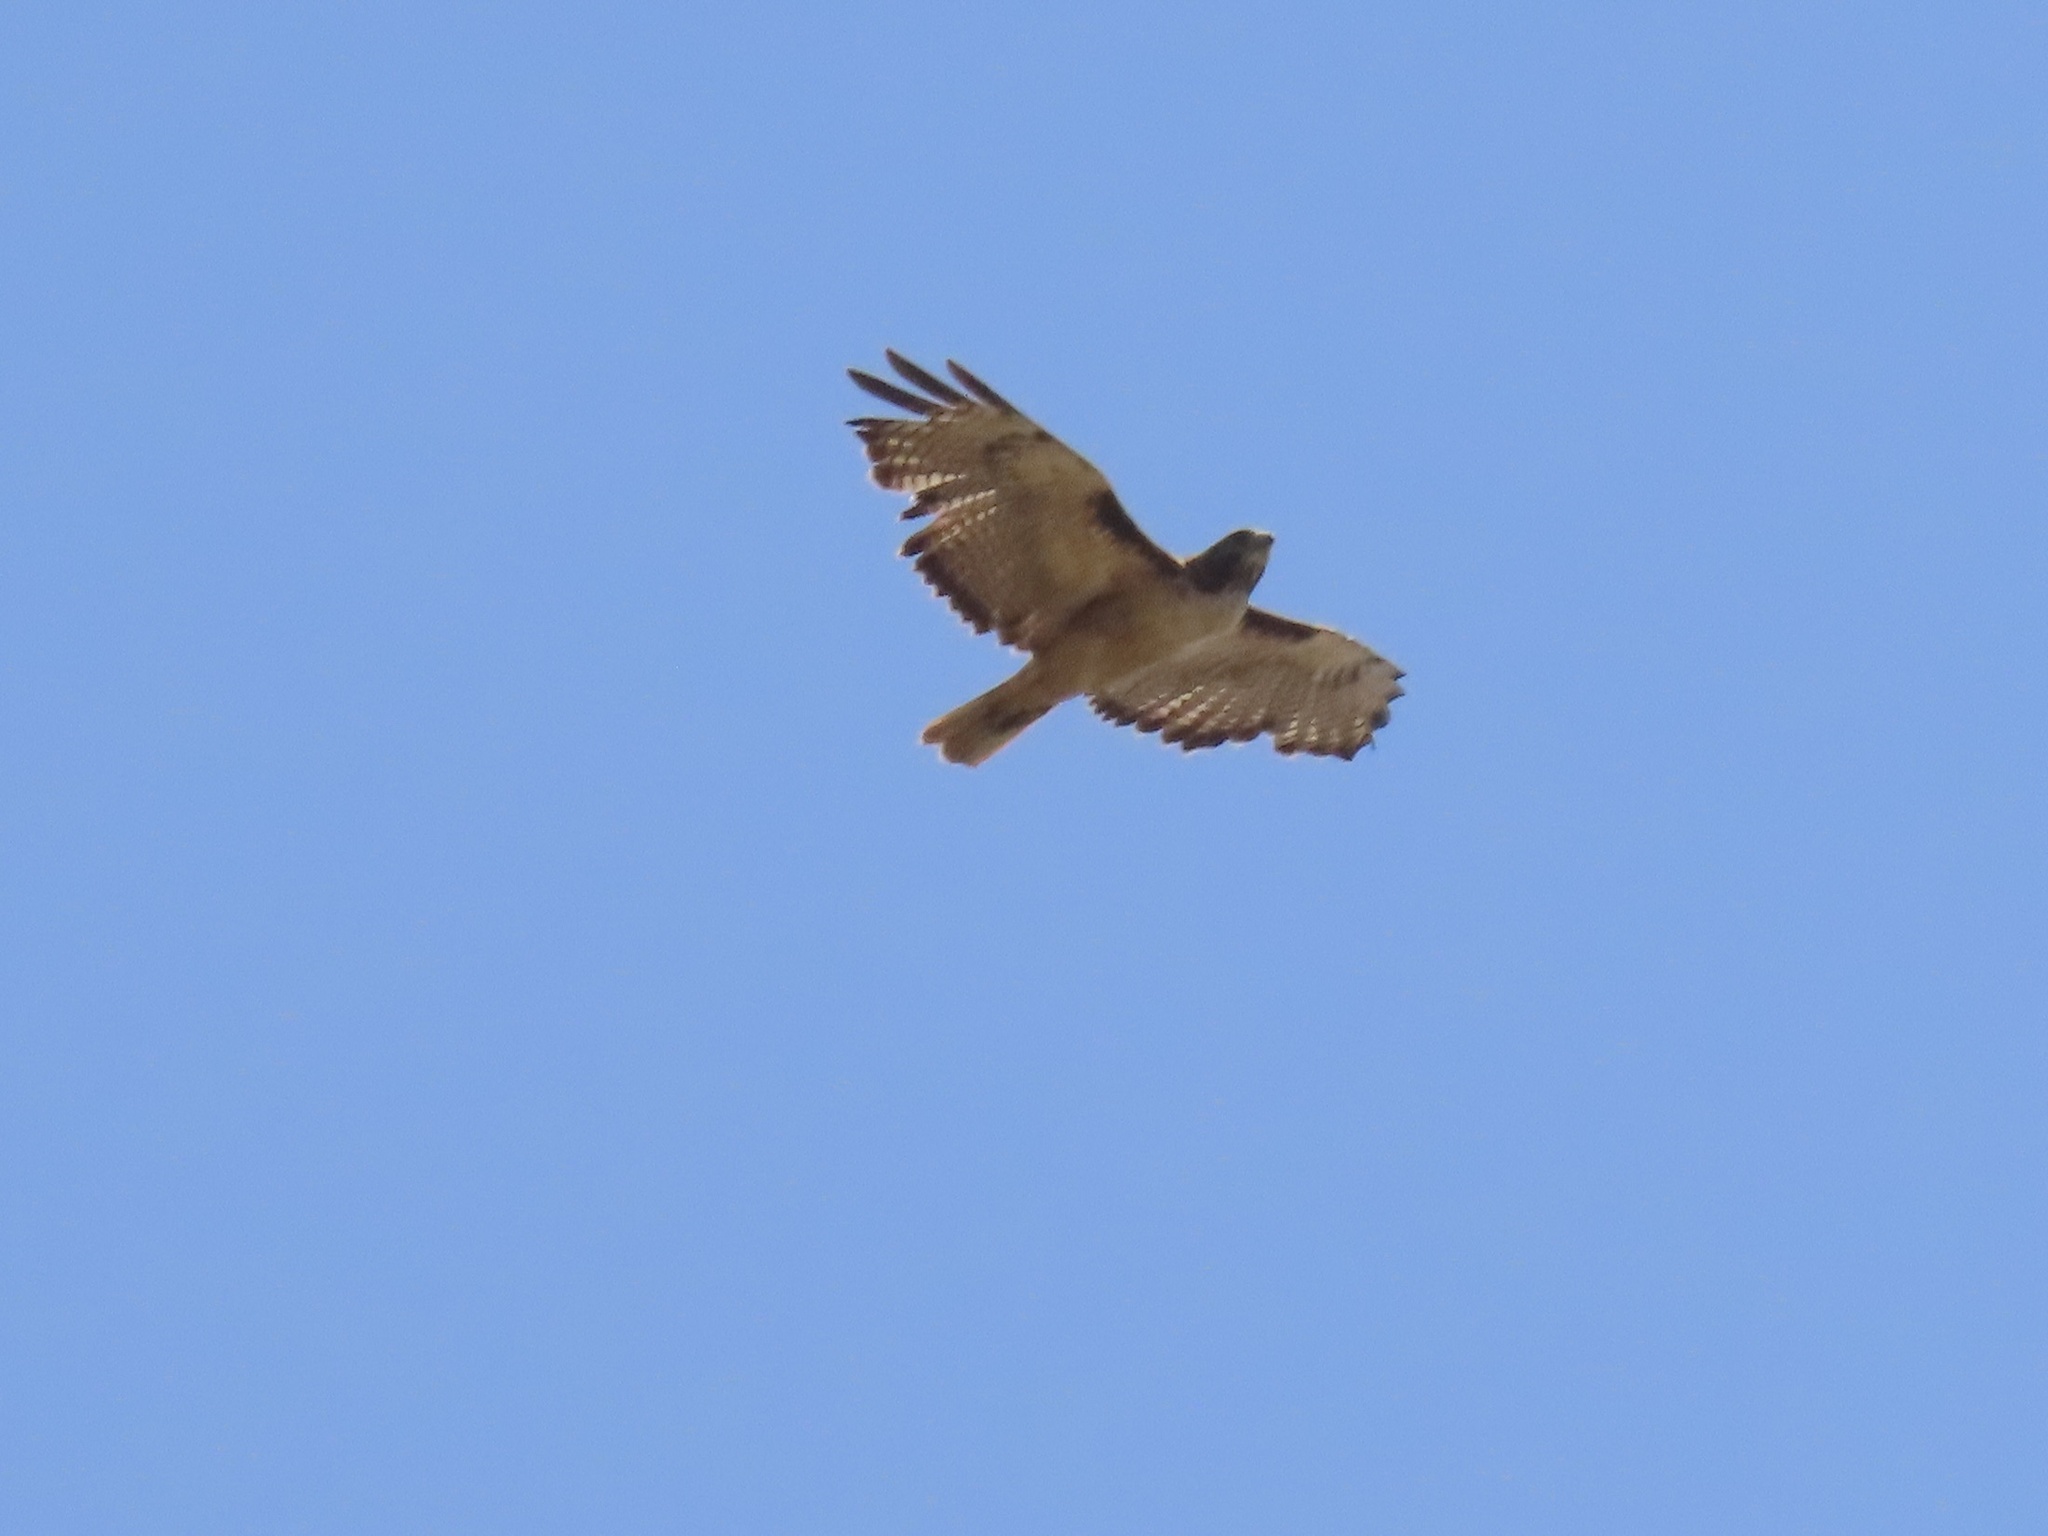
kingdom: Animalia
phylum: Chordata
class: Aves
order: Accipitriformes
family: Accipitridae
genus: Buteo
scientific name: Buteo jamaicensis
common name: Red-tailed hawk
